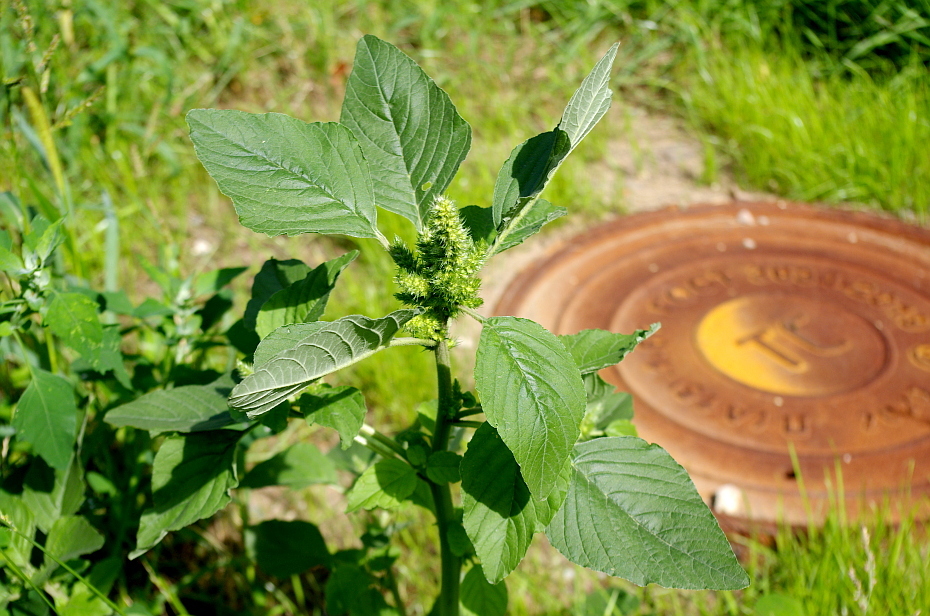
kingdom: Plantae
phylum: Tracheophyta
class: Magnoliopsida
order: Caryophyllales
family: Amaranthaceae
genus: Amaranthus
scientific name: Amaranthus retroflexus
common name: Redroot amaranth
